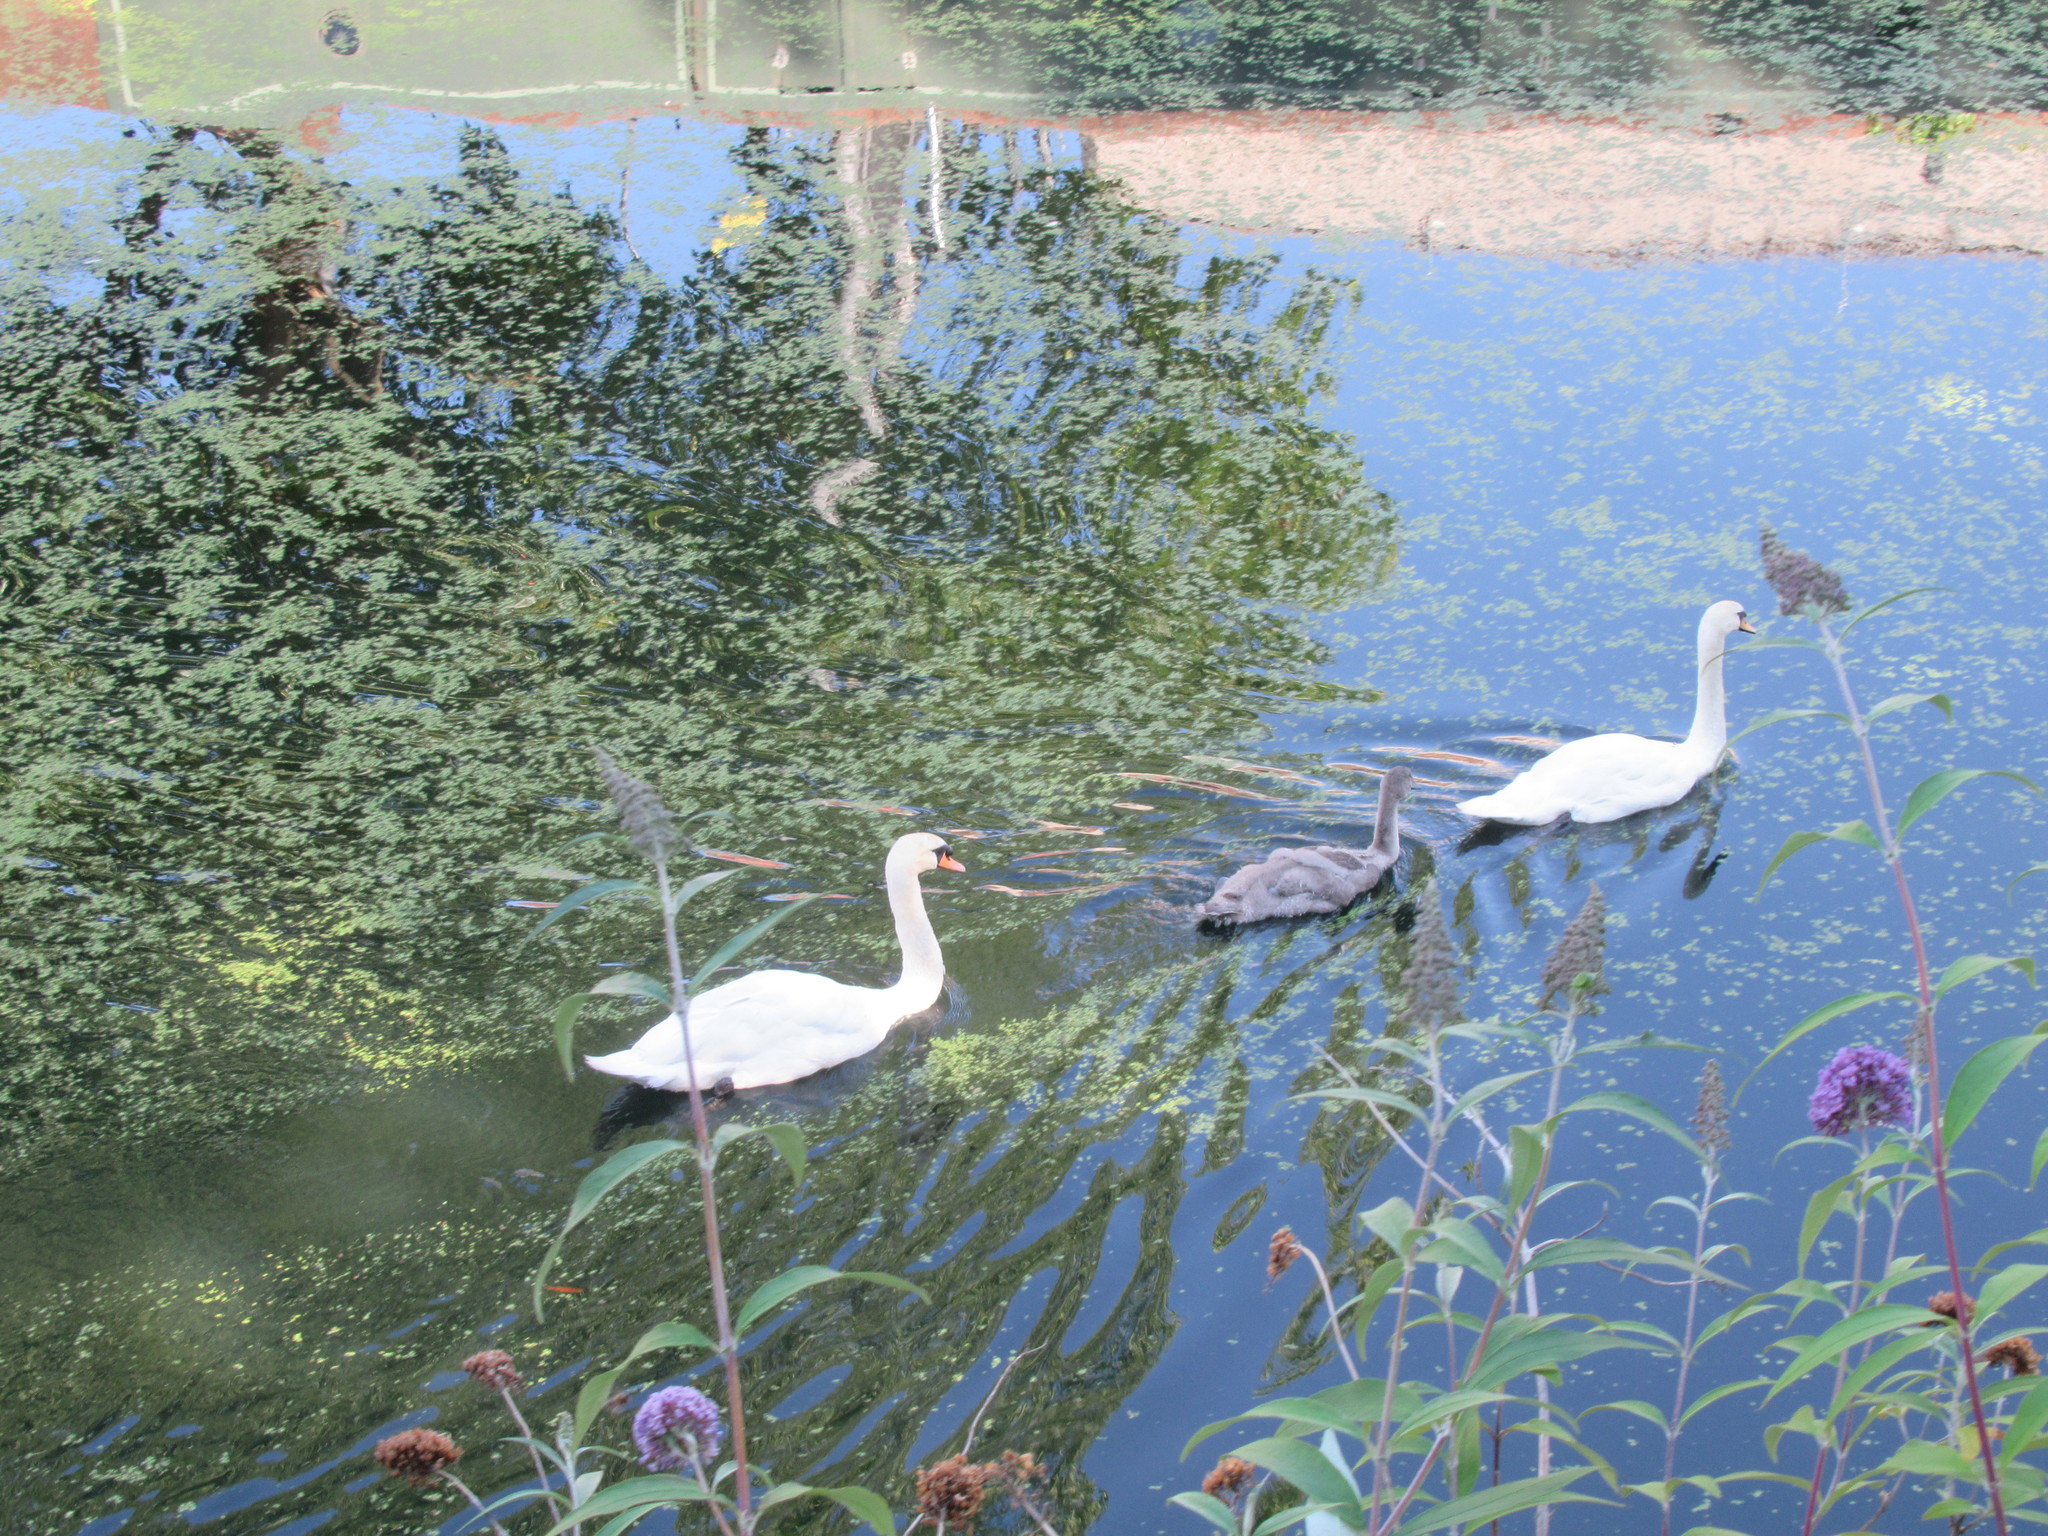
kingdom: Animalia
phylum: Chordata
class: Aves
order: Anseriformes
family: Anatidae
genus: Cygnus
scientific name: Cygnus olor
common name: Mute swan
